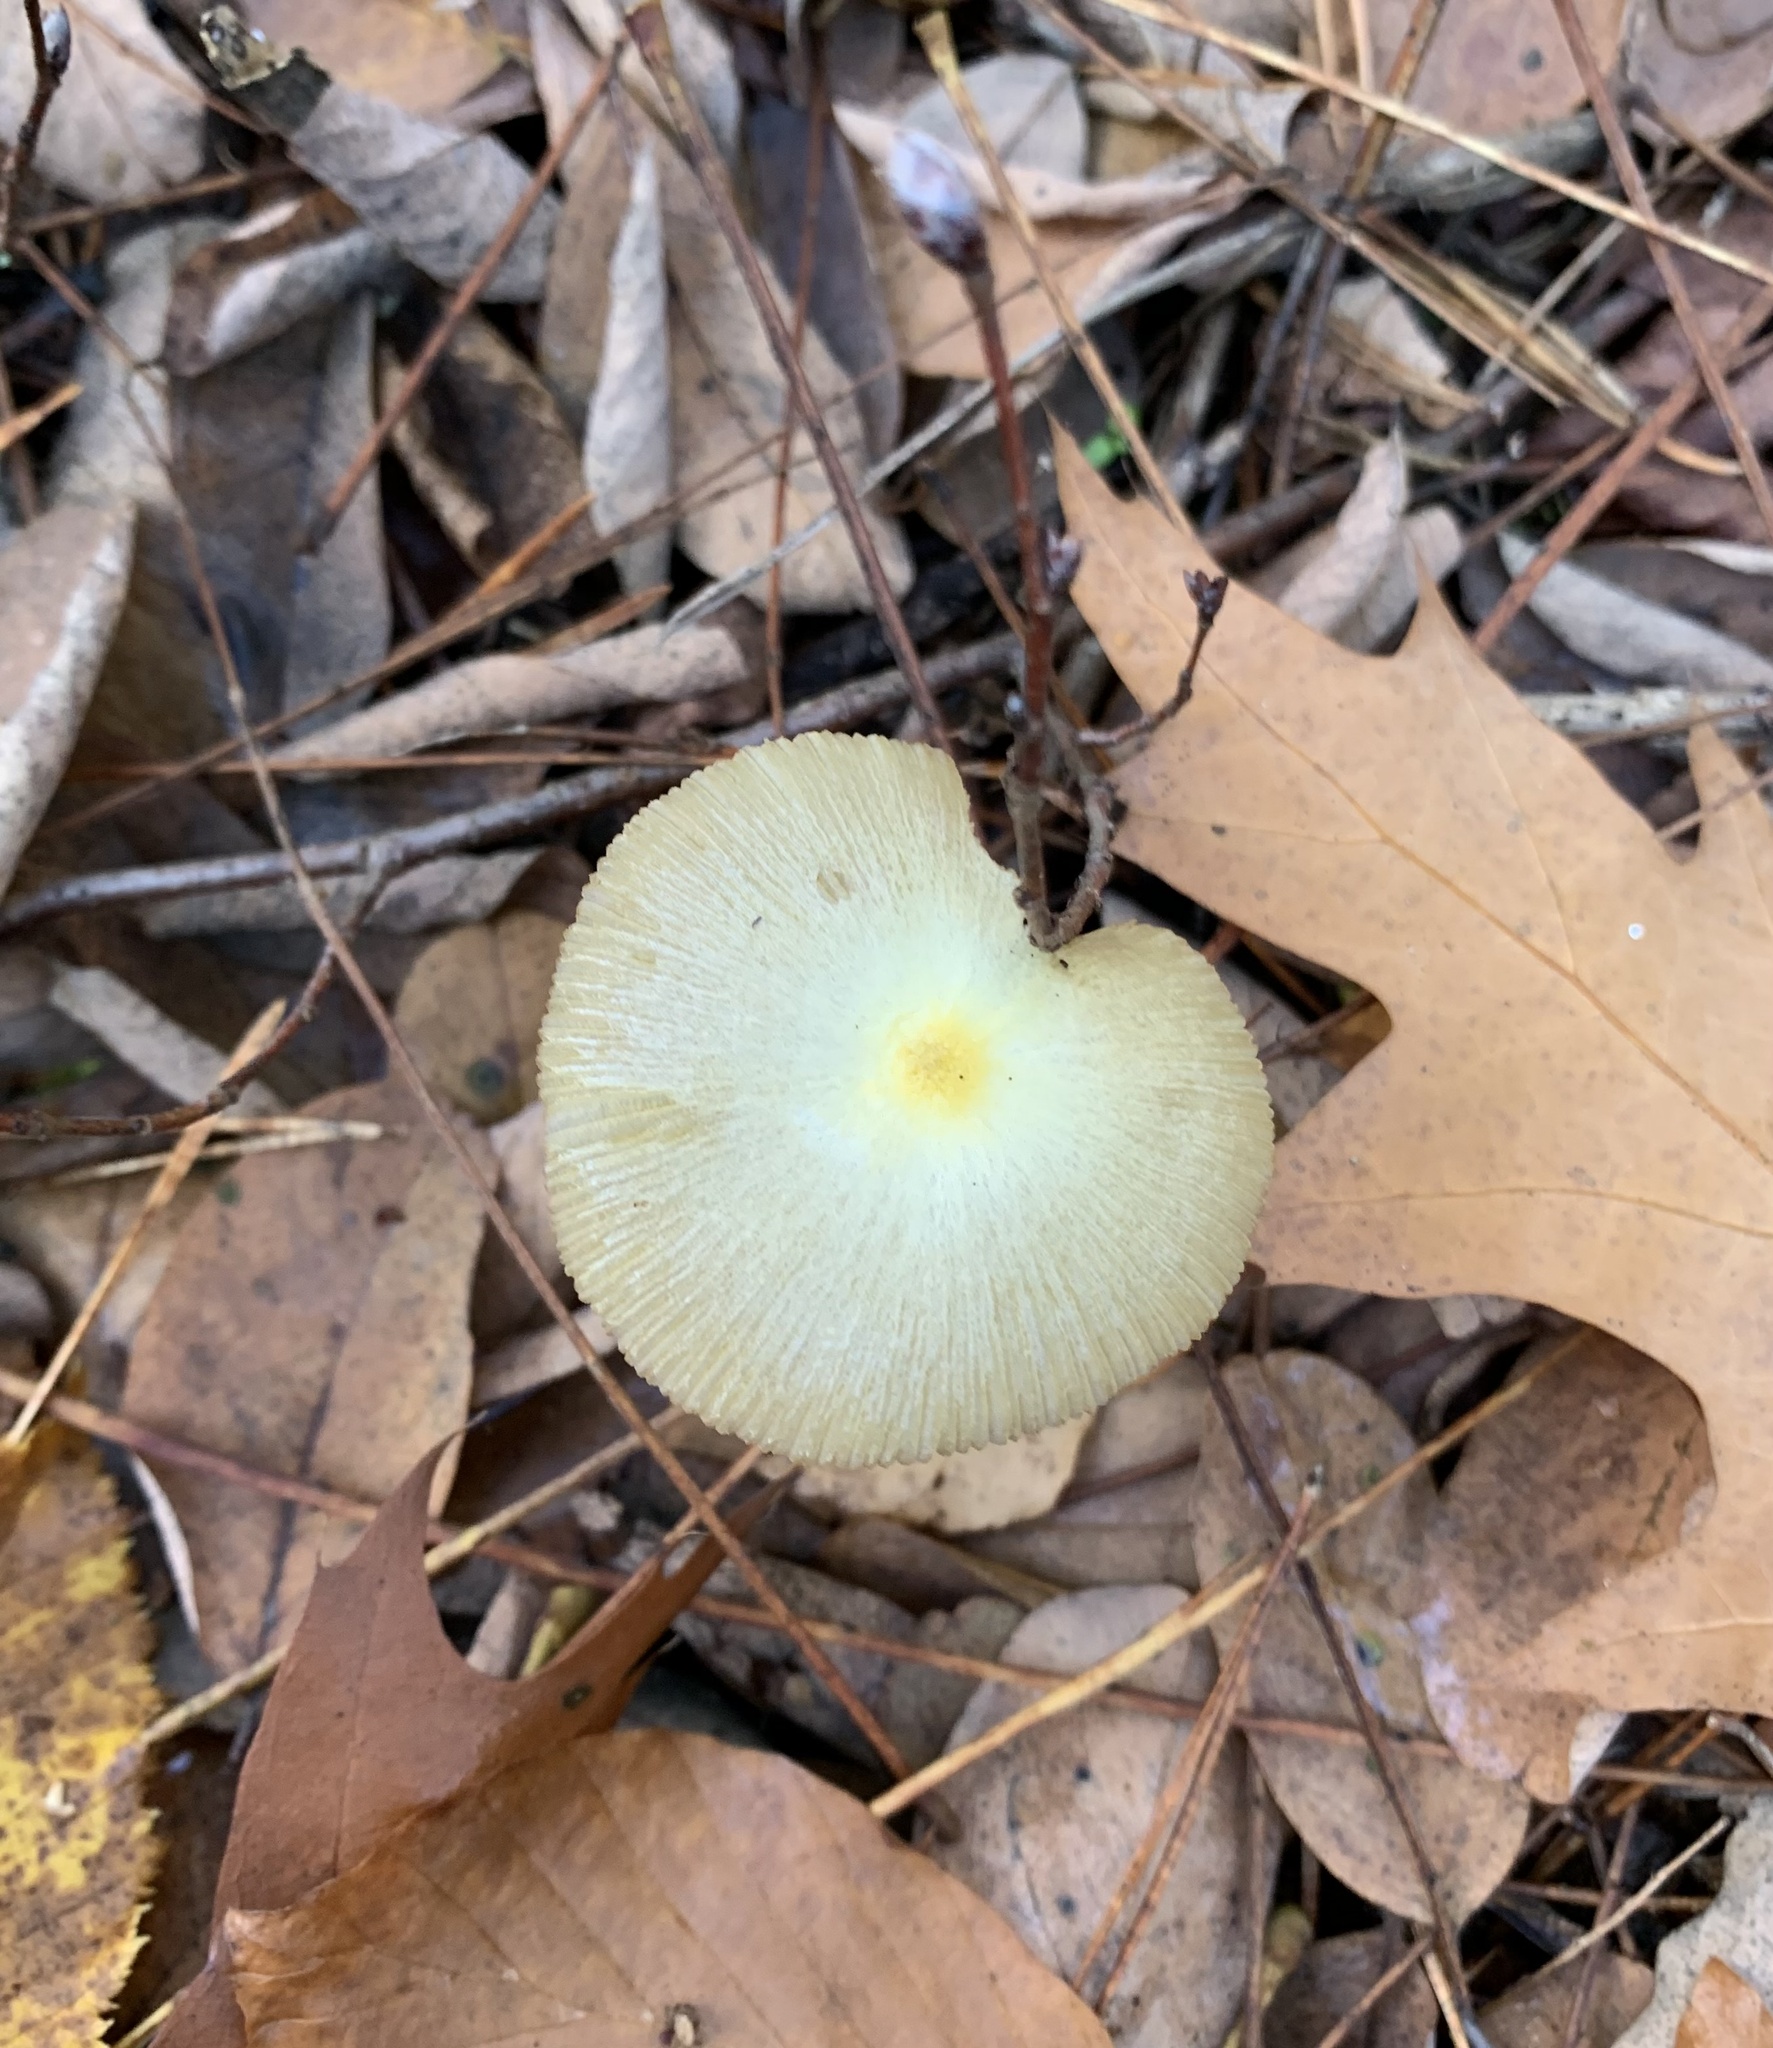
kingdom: Fungi
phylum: Basidiomycota
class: Agaricomycetes
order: Agaricales
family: Bolbitiaceae
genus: Bolbitius
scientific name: Bolbitius titubans
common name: Yellow fieldcap
